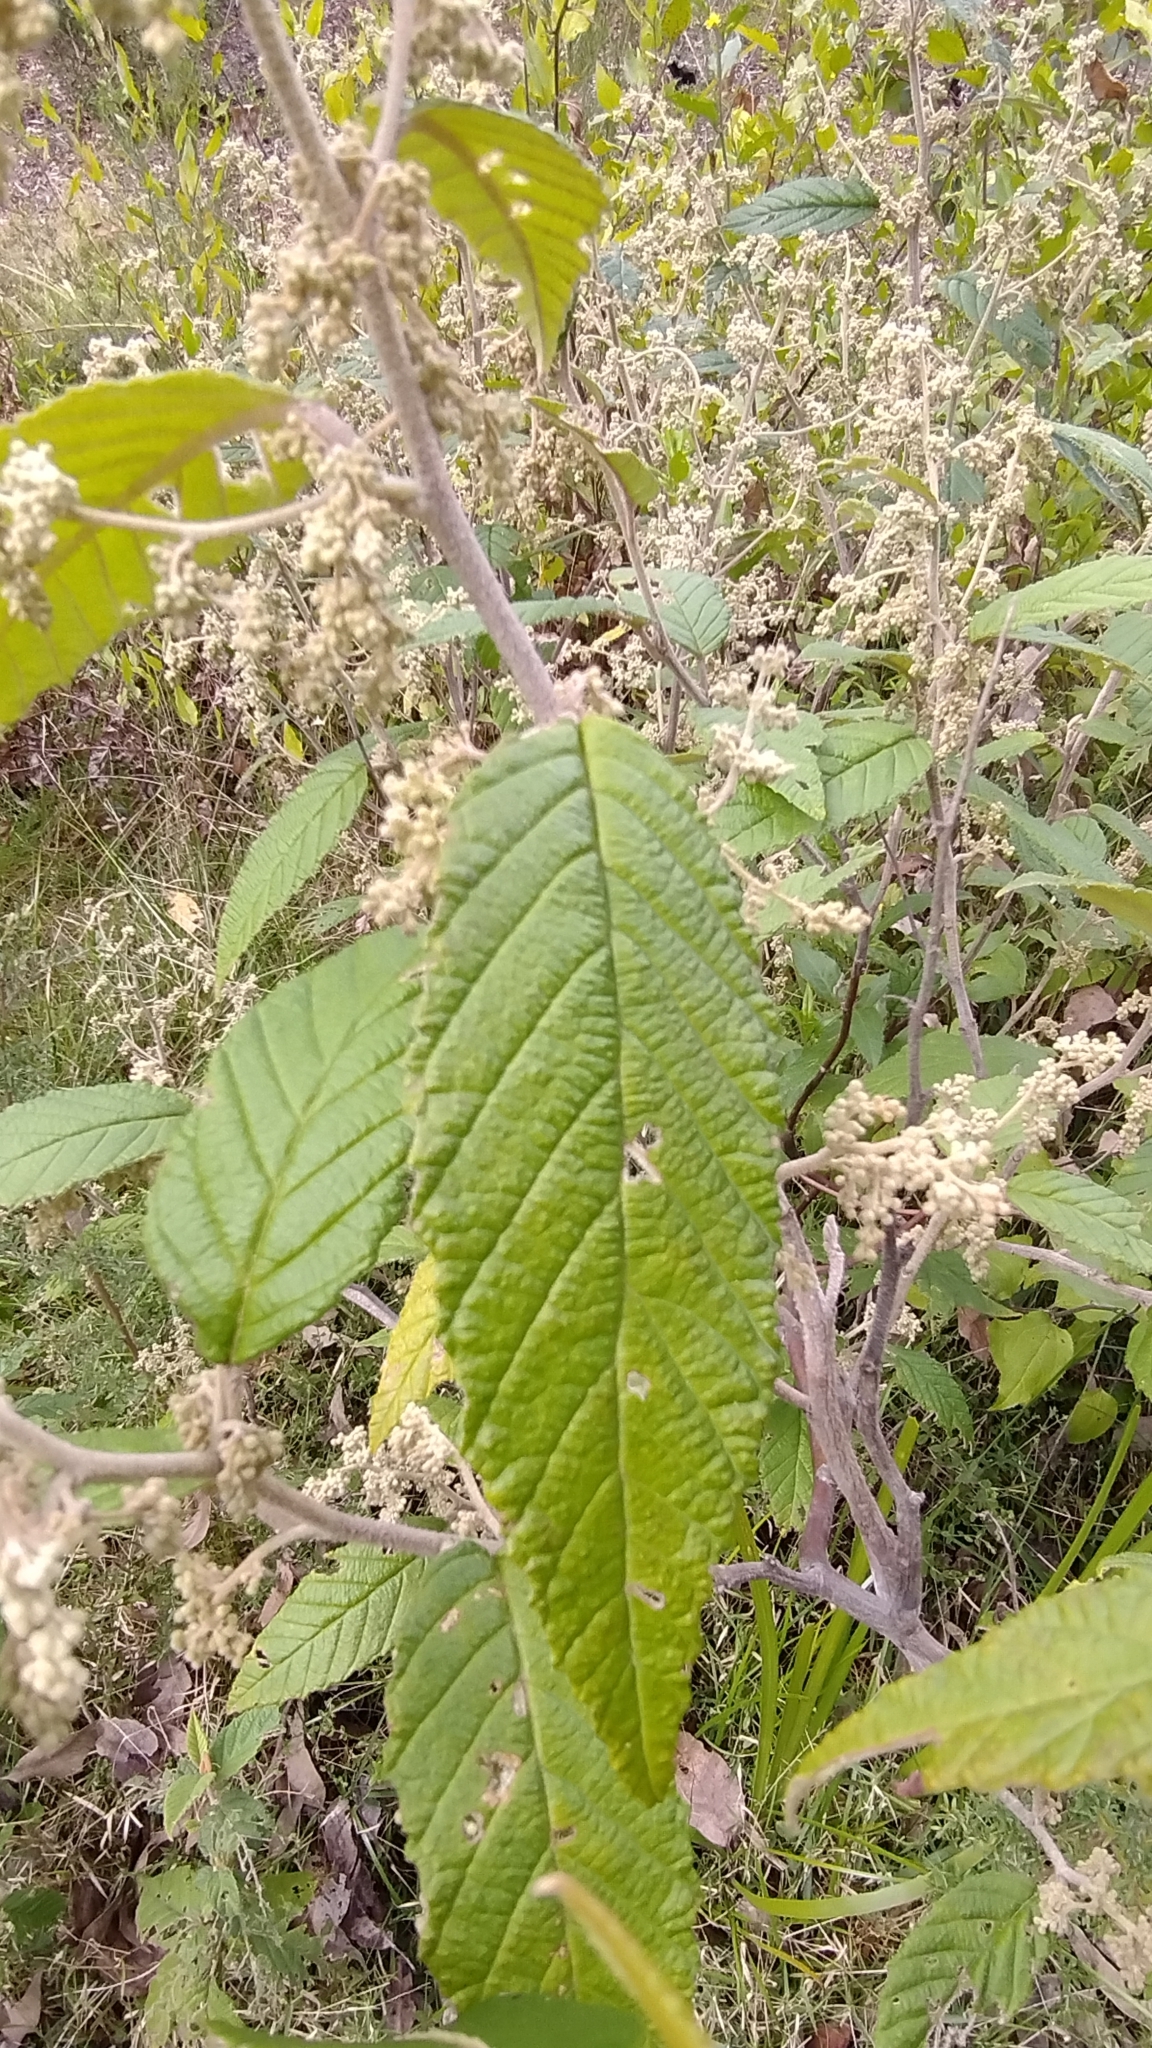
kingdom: Plantae
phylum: Tracheophyta
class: Magnoliopsida
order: Rosales
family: Rhamnaceae
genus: Pomaderris
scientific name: Pomaderris aspera
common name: Hazel pomaderris
